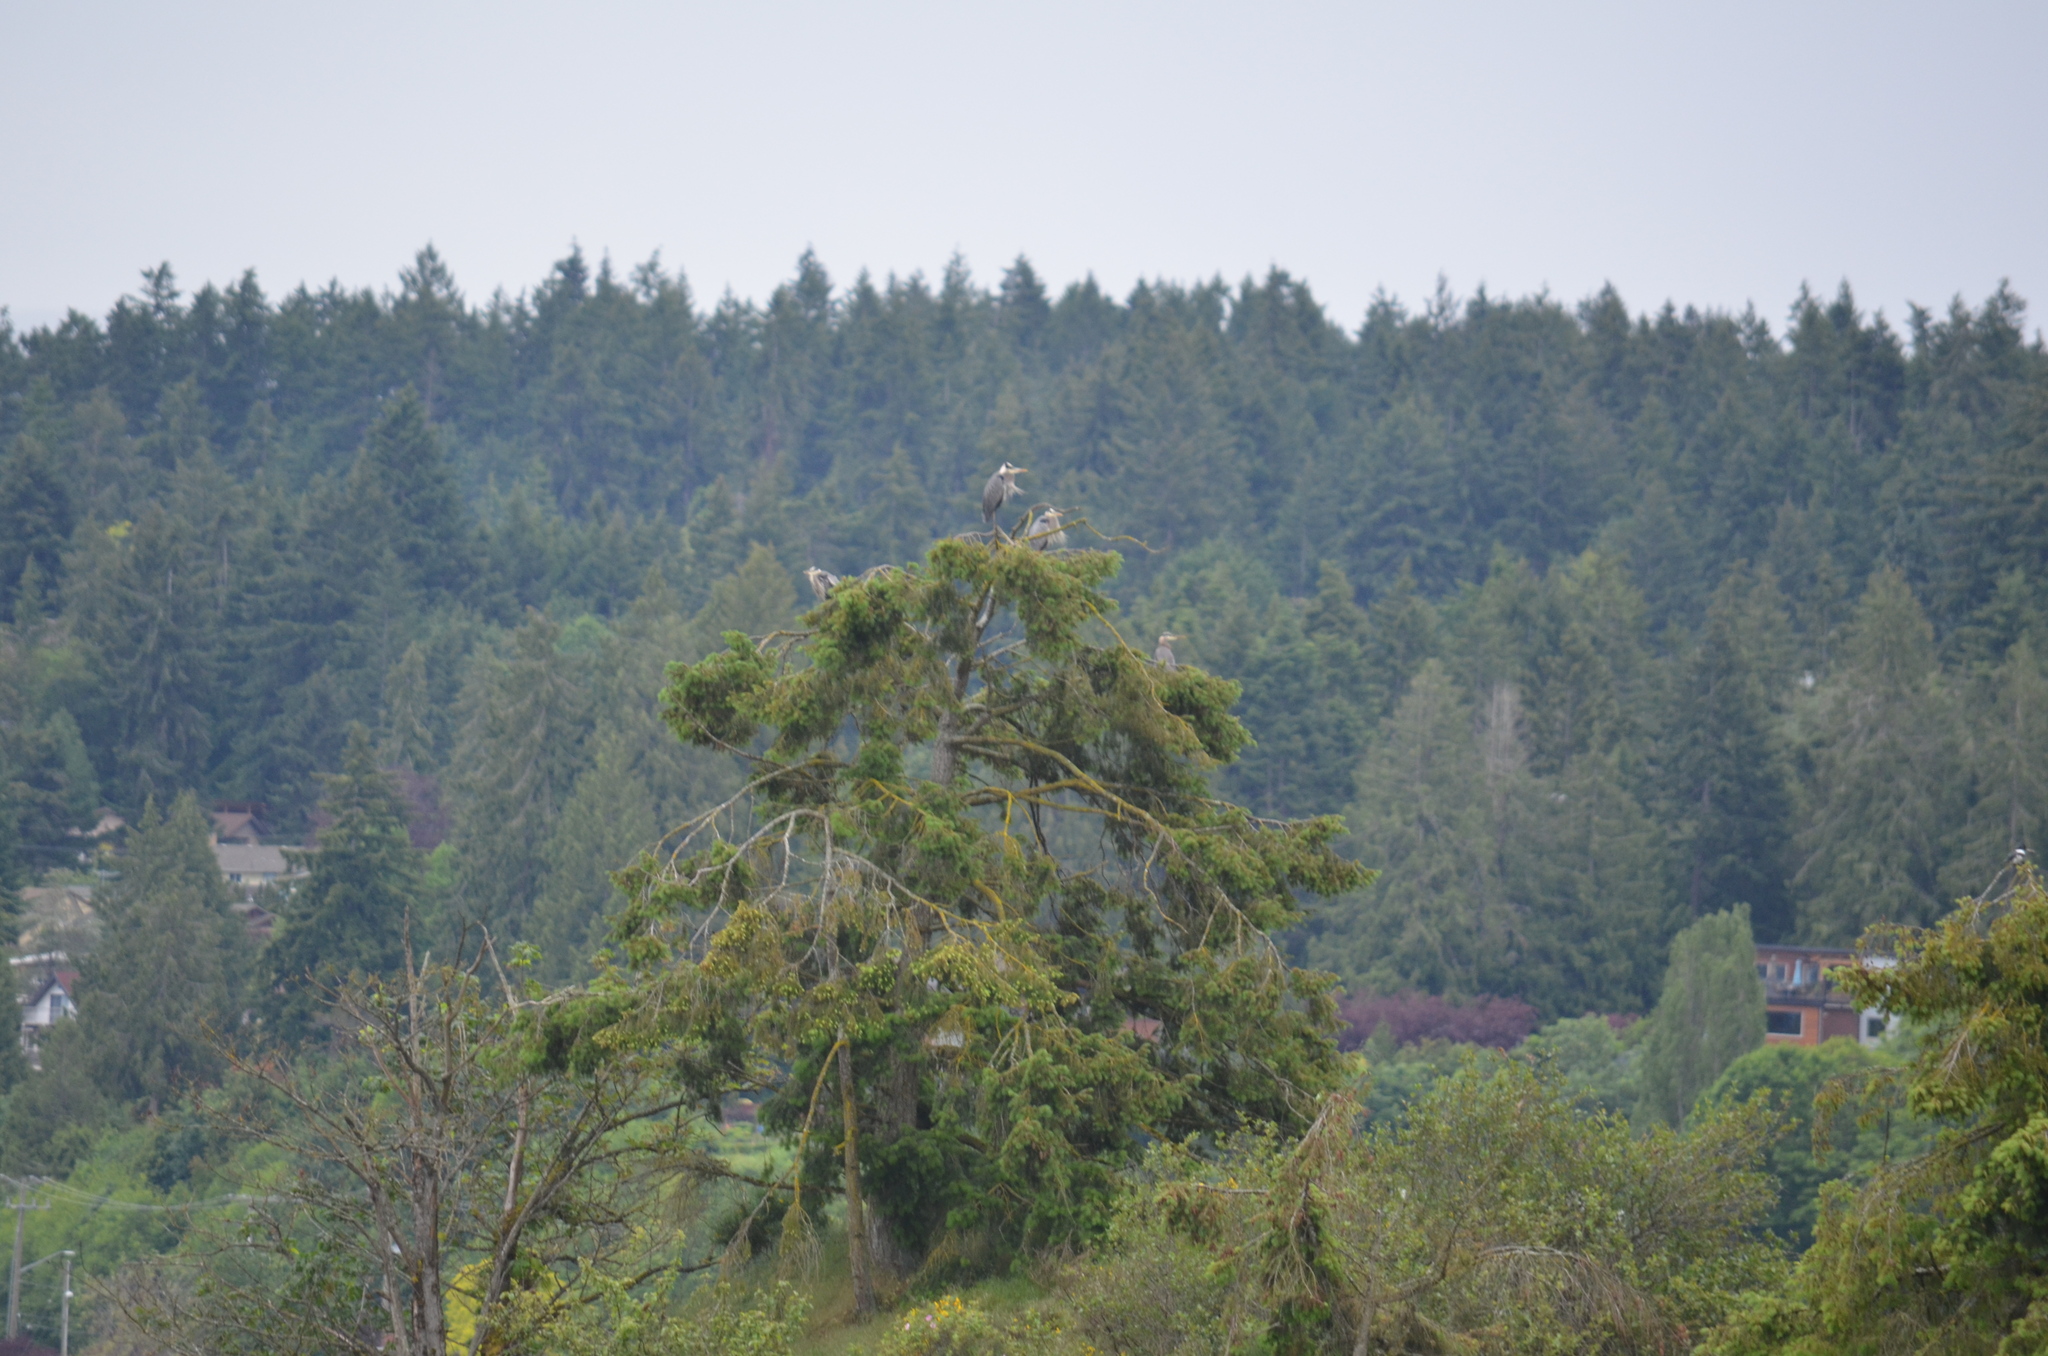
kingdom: Animalia
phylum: Chordata
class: Aves
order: Pelecaniformes
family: Ardeidae
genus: Ardea
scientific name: Ardea herodias
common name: Great blue heron
